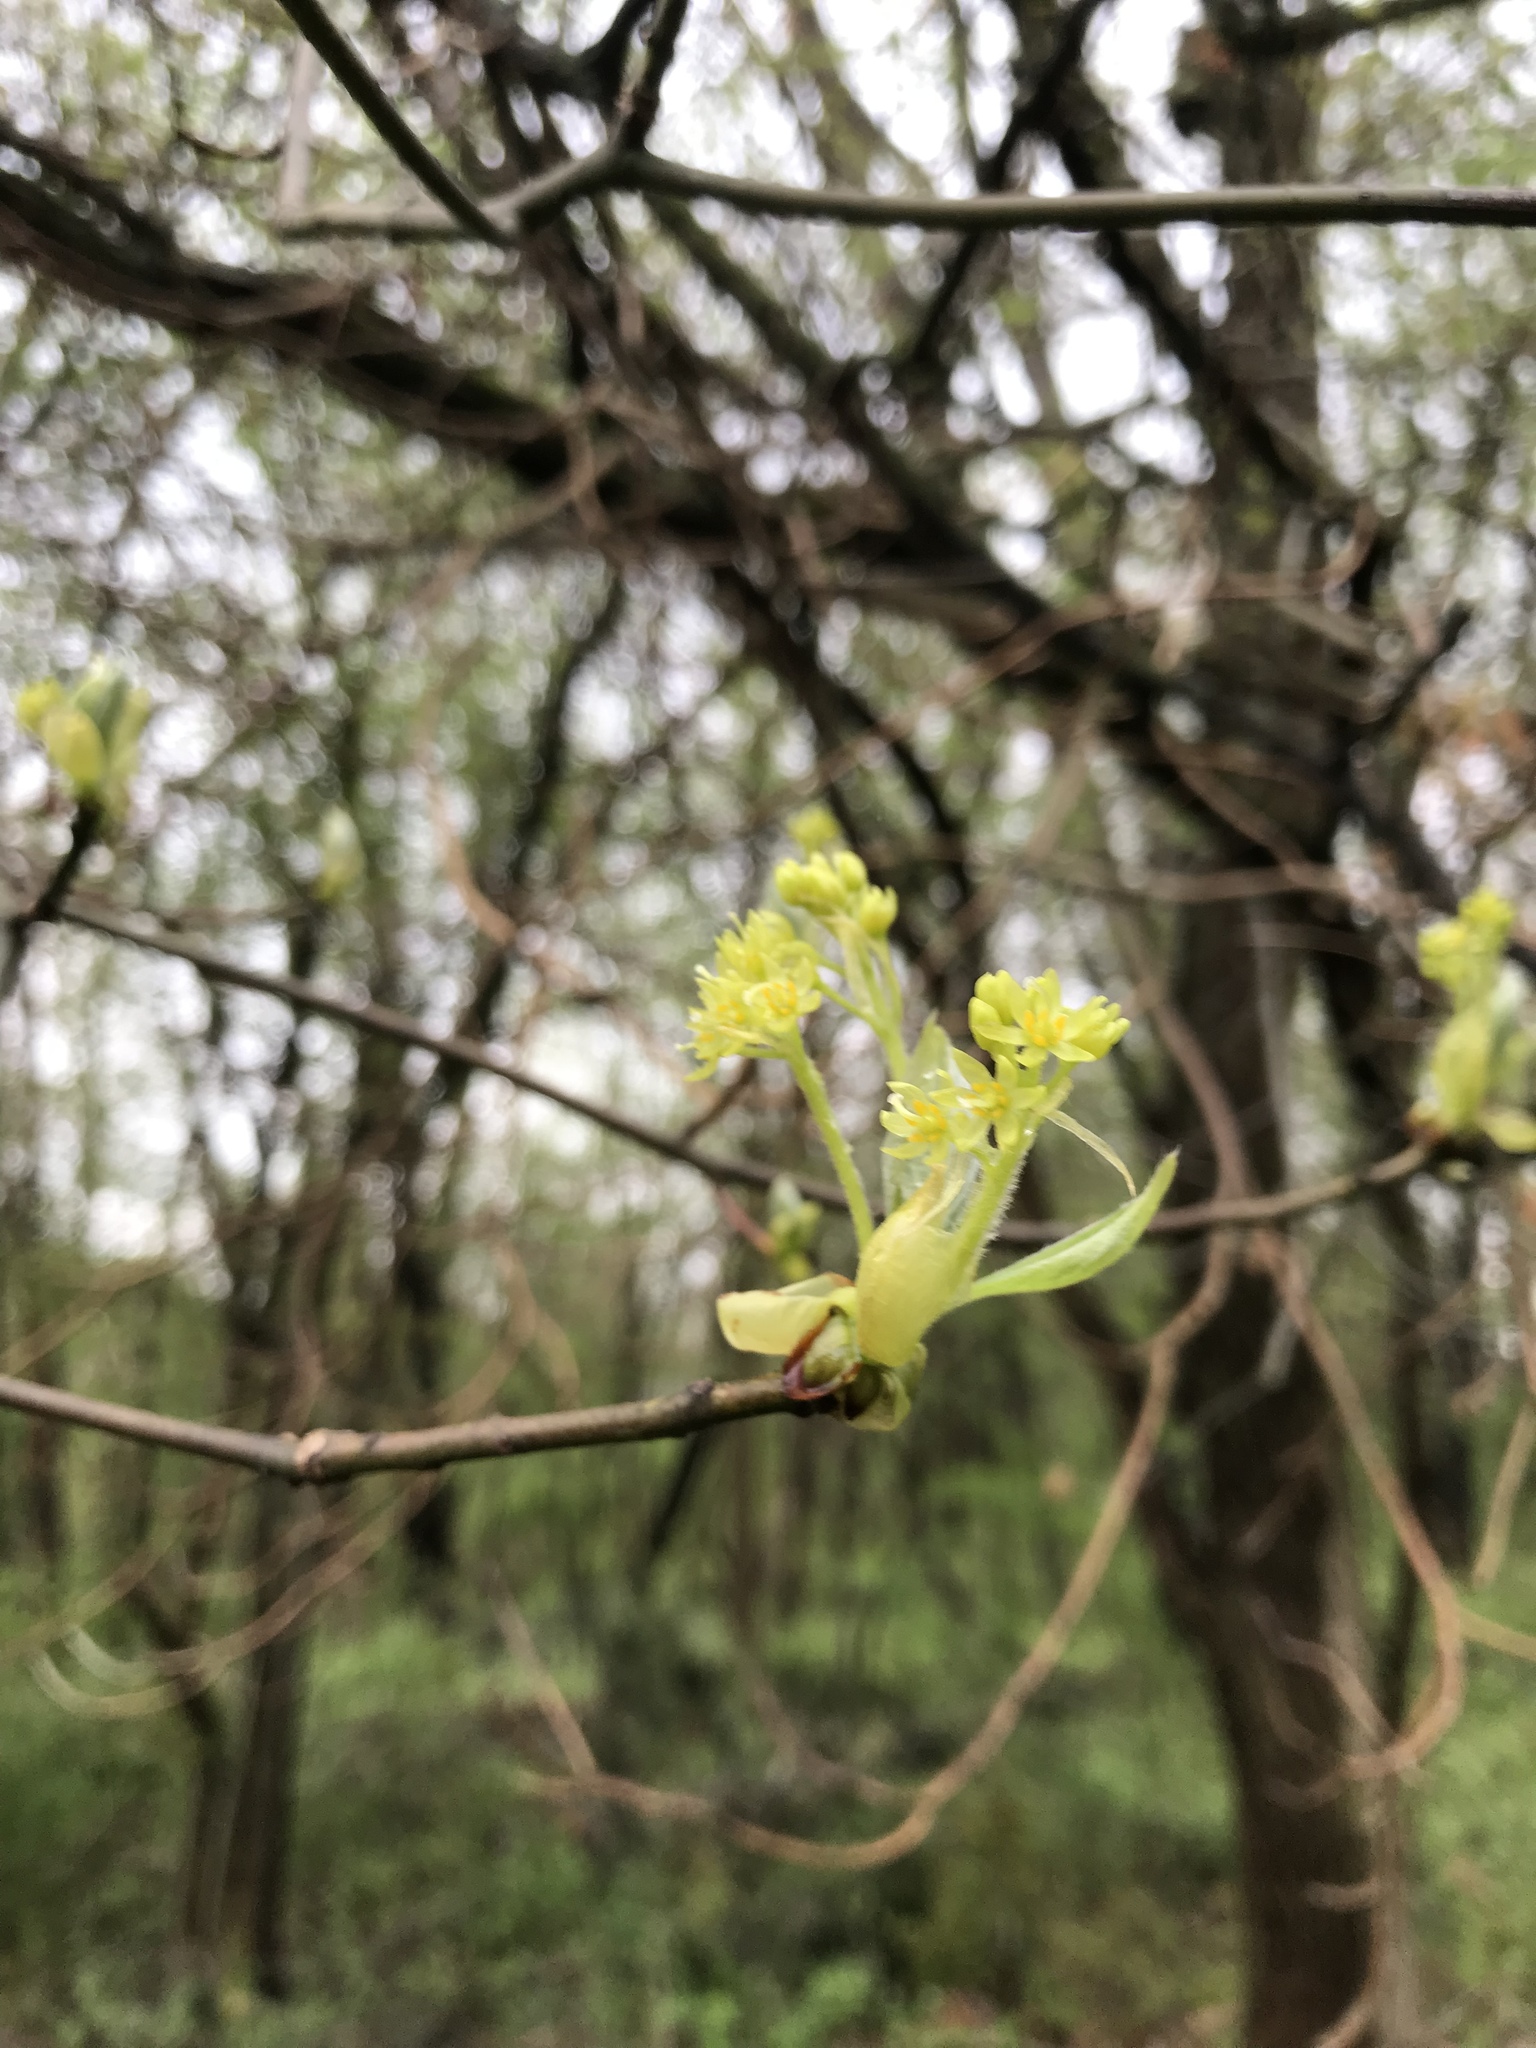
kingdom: Plantae
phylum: Tracheophyta
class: Magnoliopsida
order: Laurales
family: Lauraceae
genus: Sassafras
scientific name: Sassafras albidum
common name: Sassafras
